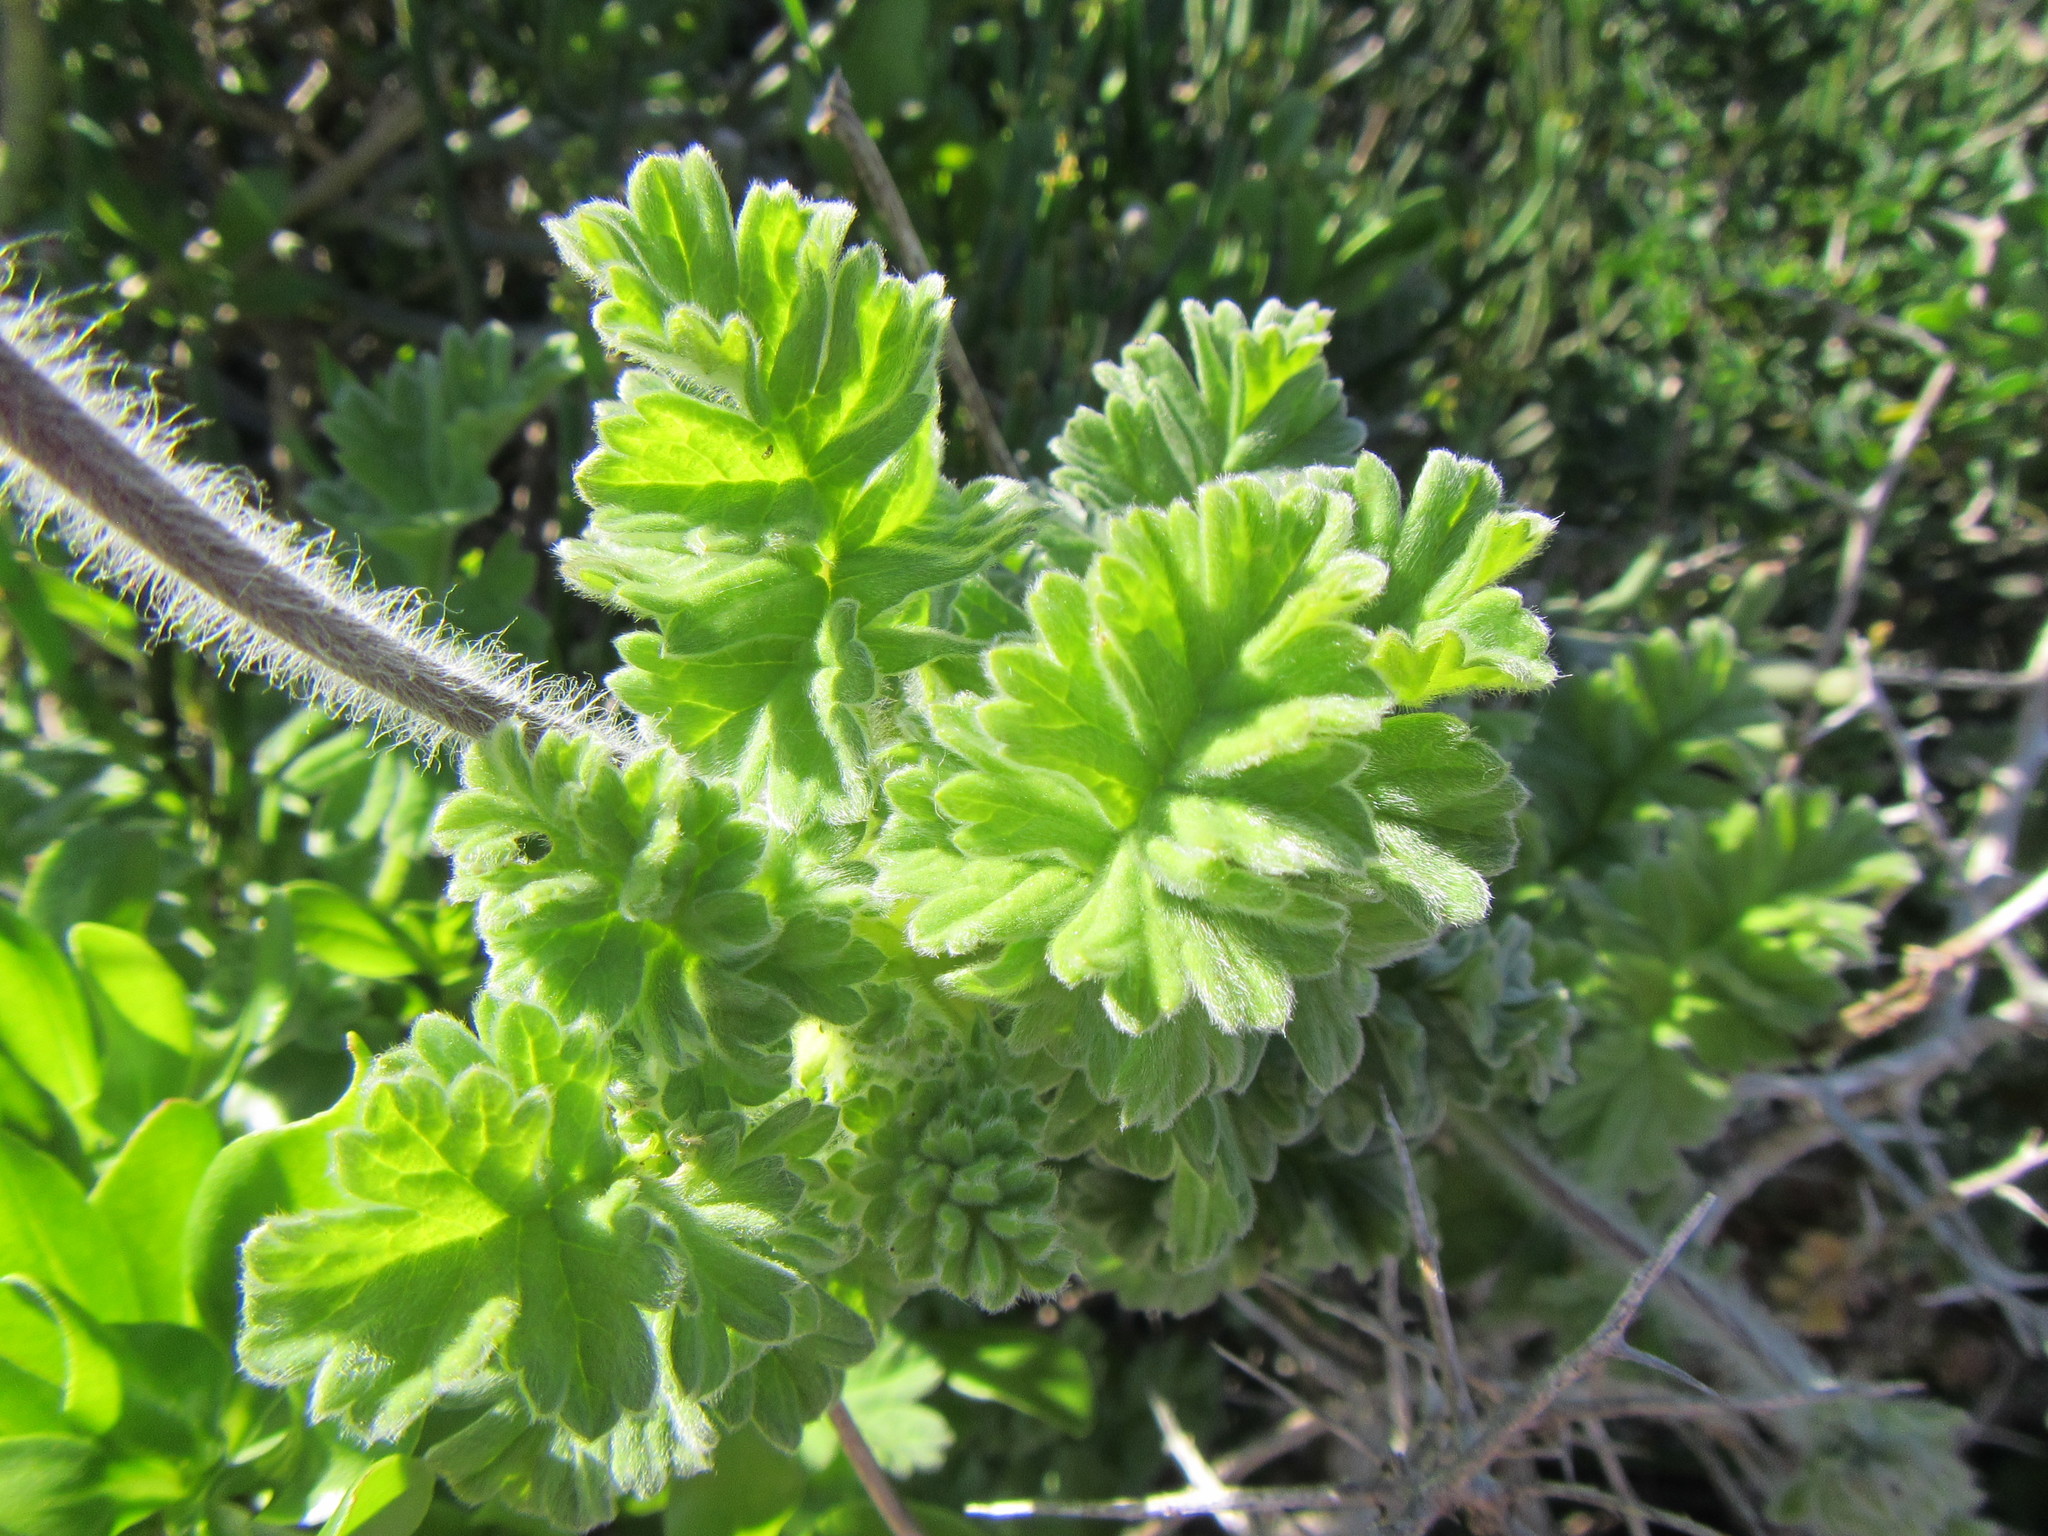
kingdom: Plantae
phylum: Tracheophyta
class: Magnoliopsida
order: Geraniales
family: Geraniaceae
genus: Pelargonium
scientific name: Pelargonium fulgidum
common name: Celandine-leaf pelargonium
